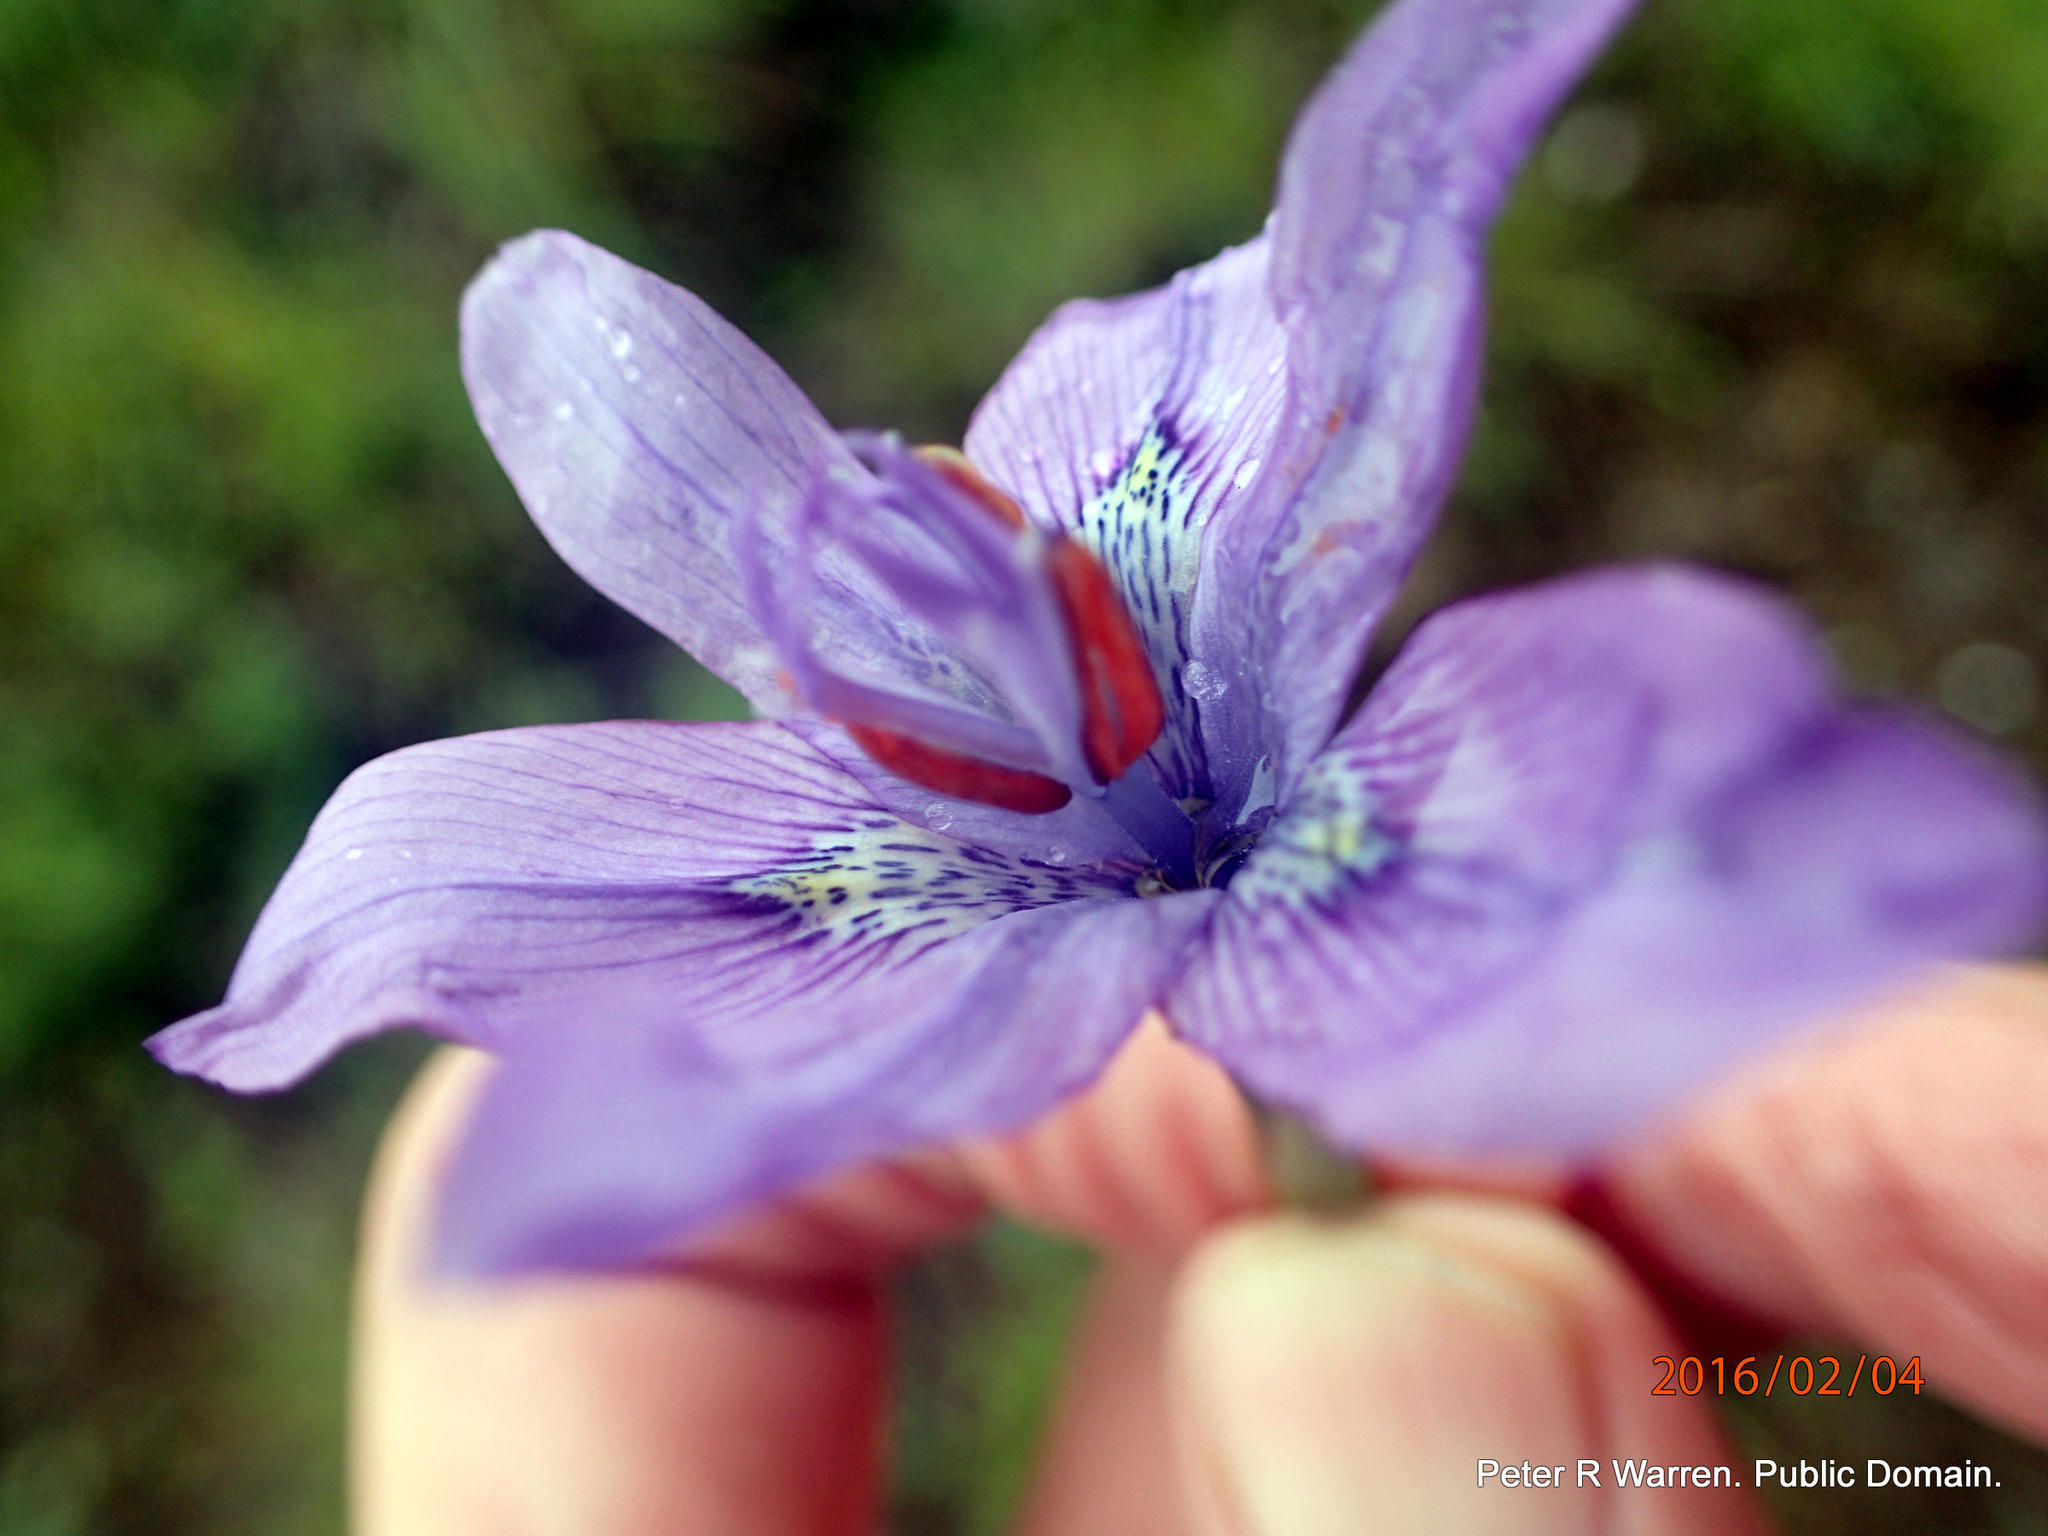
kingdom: Plantae
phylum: Tracheophyta
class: Liliopsida
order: Asparagales
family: Iridaceae
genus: Moraea
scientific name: Moraea inclinata
